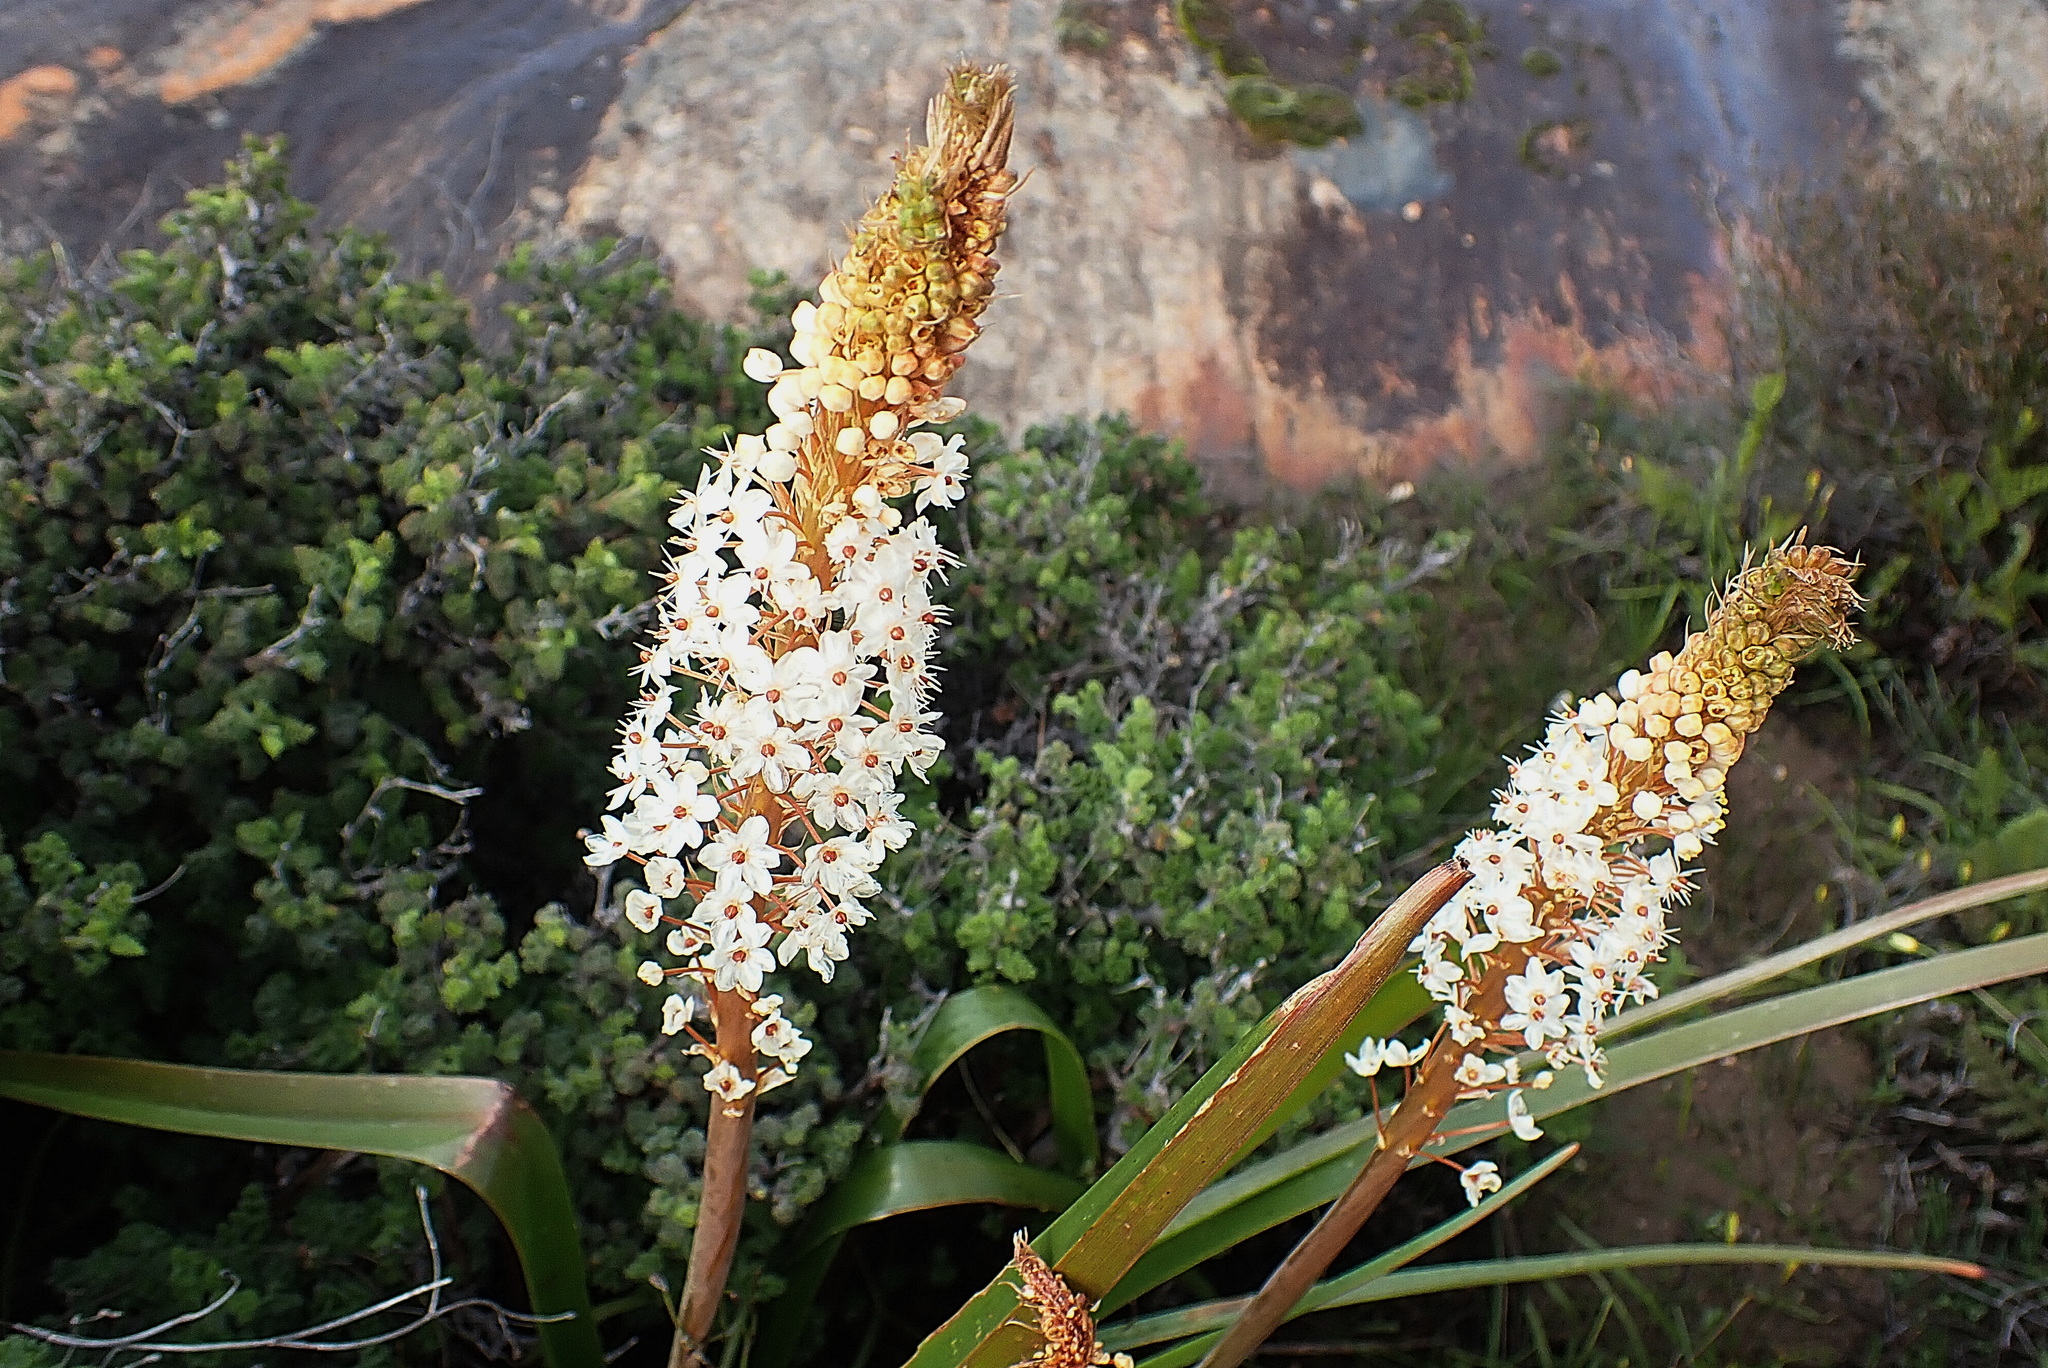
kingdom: Plantae
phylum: Tracheophyta
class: Liliopsida
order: Asparagales
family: Asphodelaceae
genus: Bulbinella
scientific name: Bulbinella latifolia
